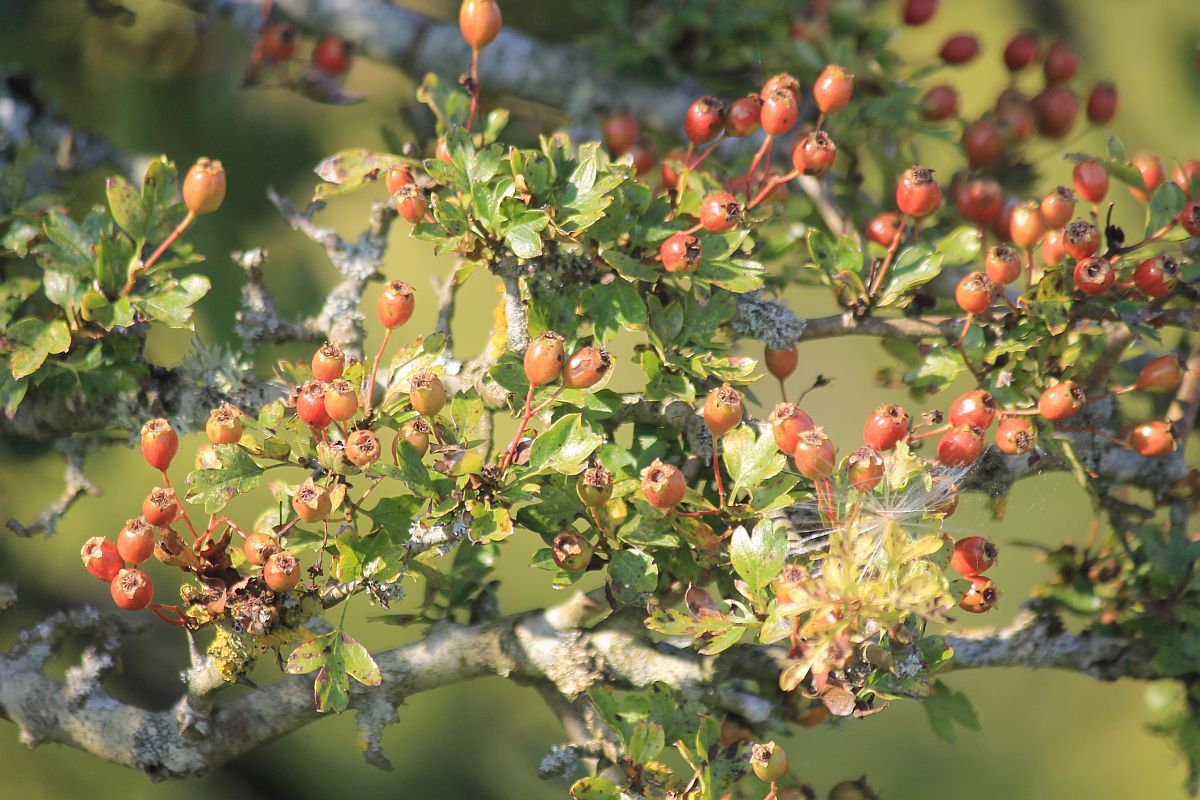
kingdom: Plantae
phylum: Tracheophyta
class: Magnoliopsida
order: Rosales
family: Rosaceae
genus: Crataegus
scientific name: Crataegus monogyna
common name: Hawthorn
